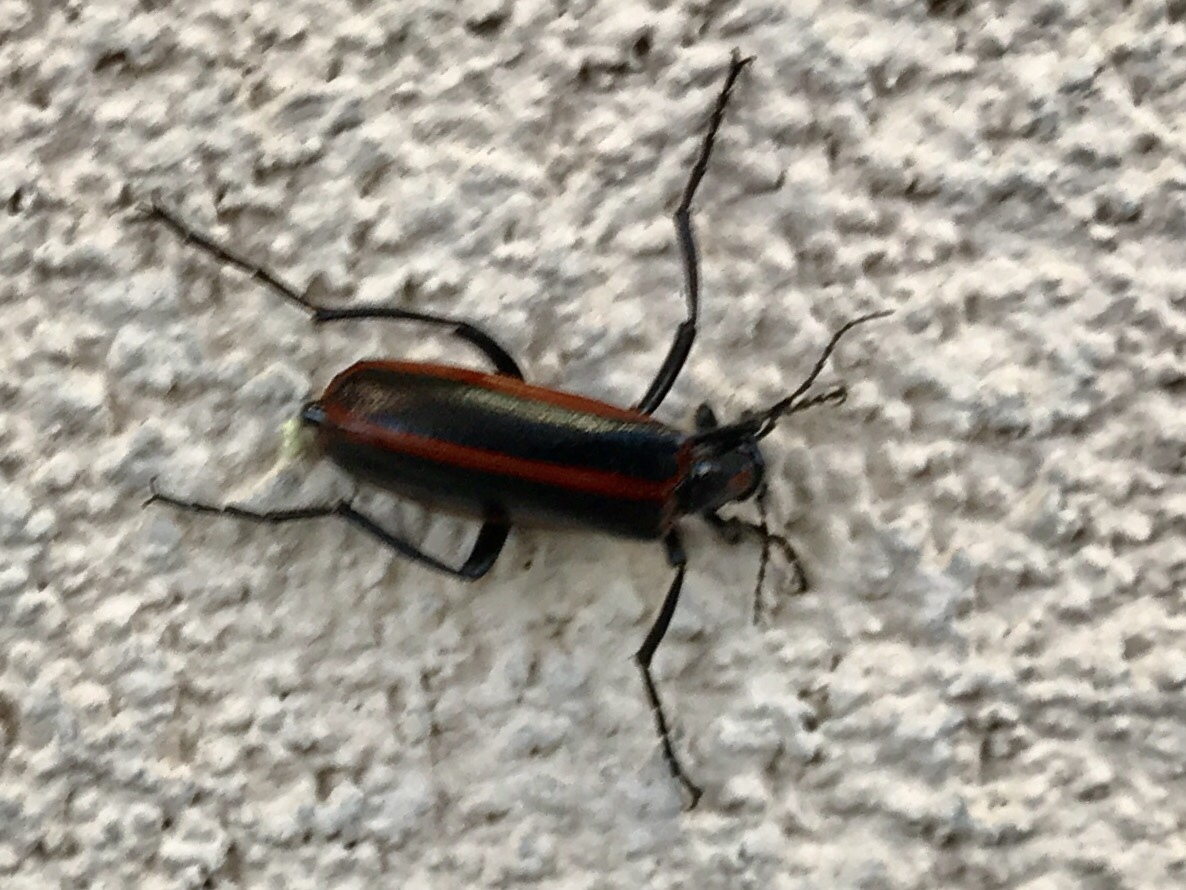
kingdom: Animalia
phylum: Arthropoda
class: Insecta
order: Coleoptera
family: Meloidae
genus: Pyrota
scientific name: Pyrota akhurstiana
